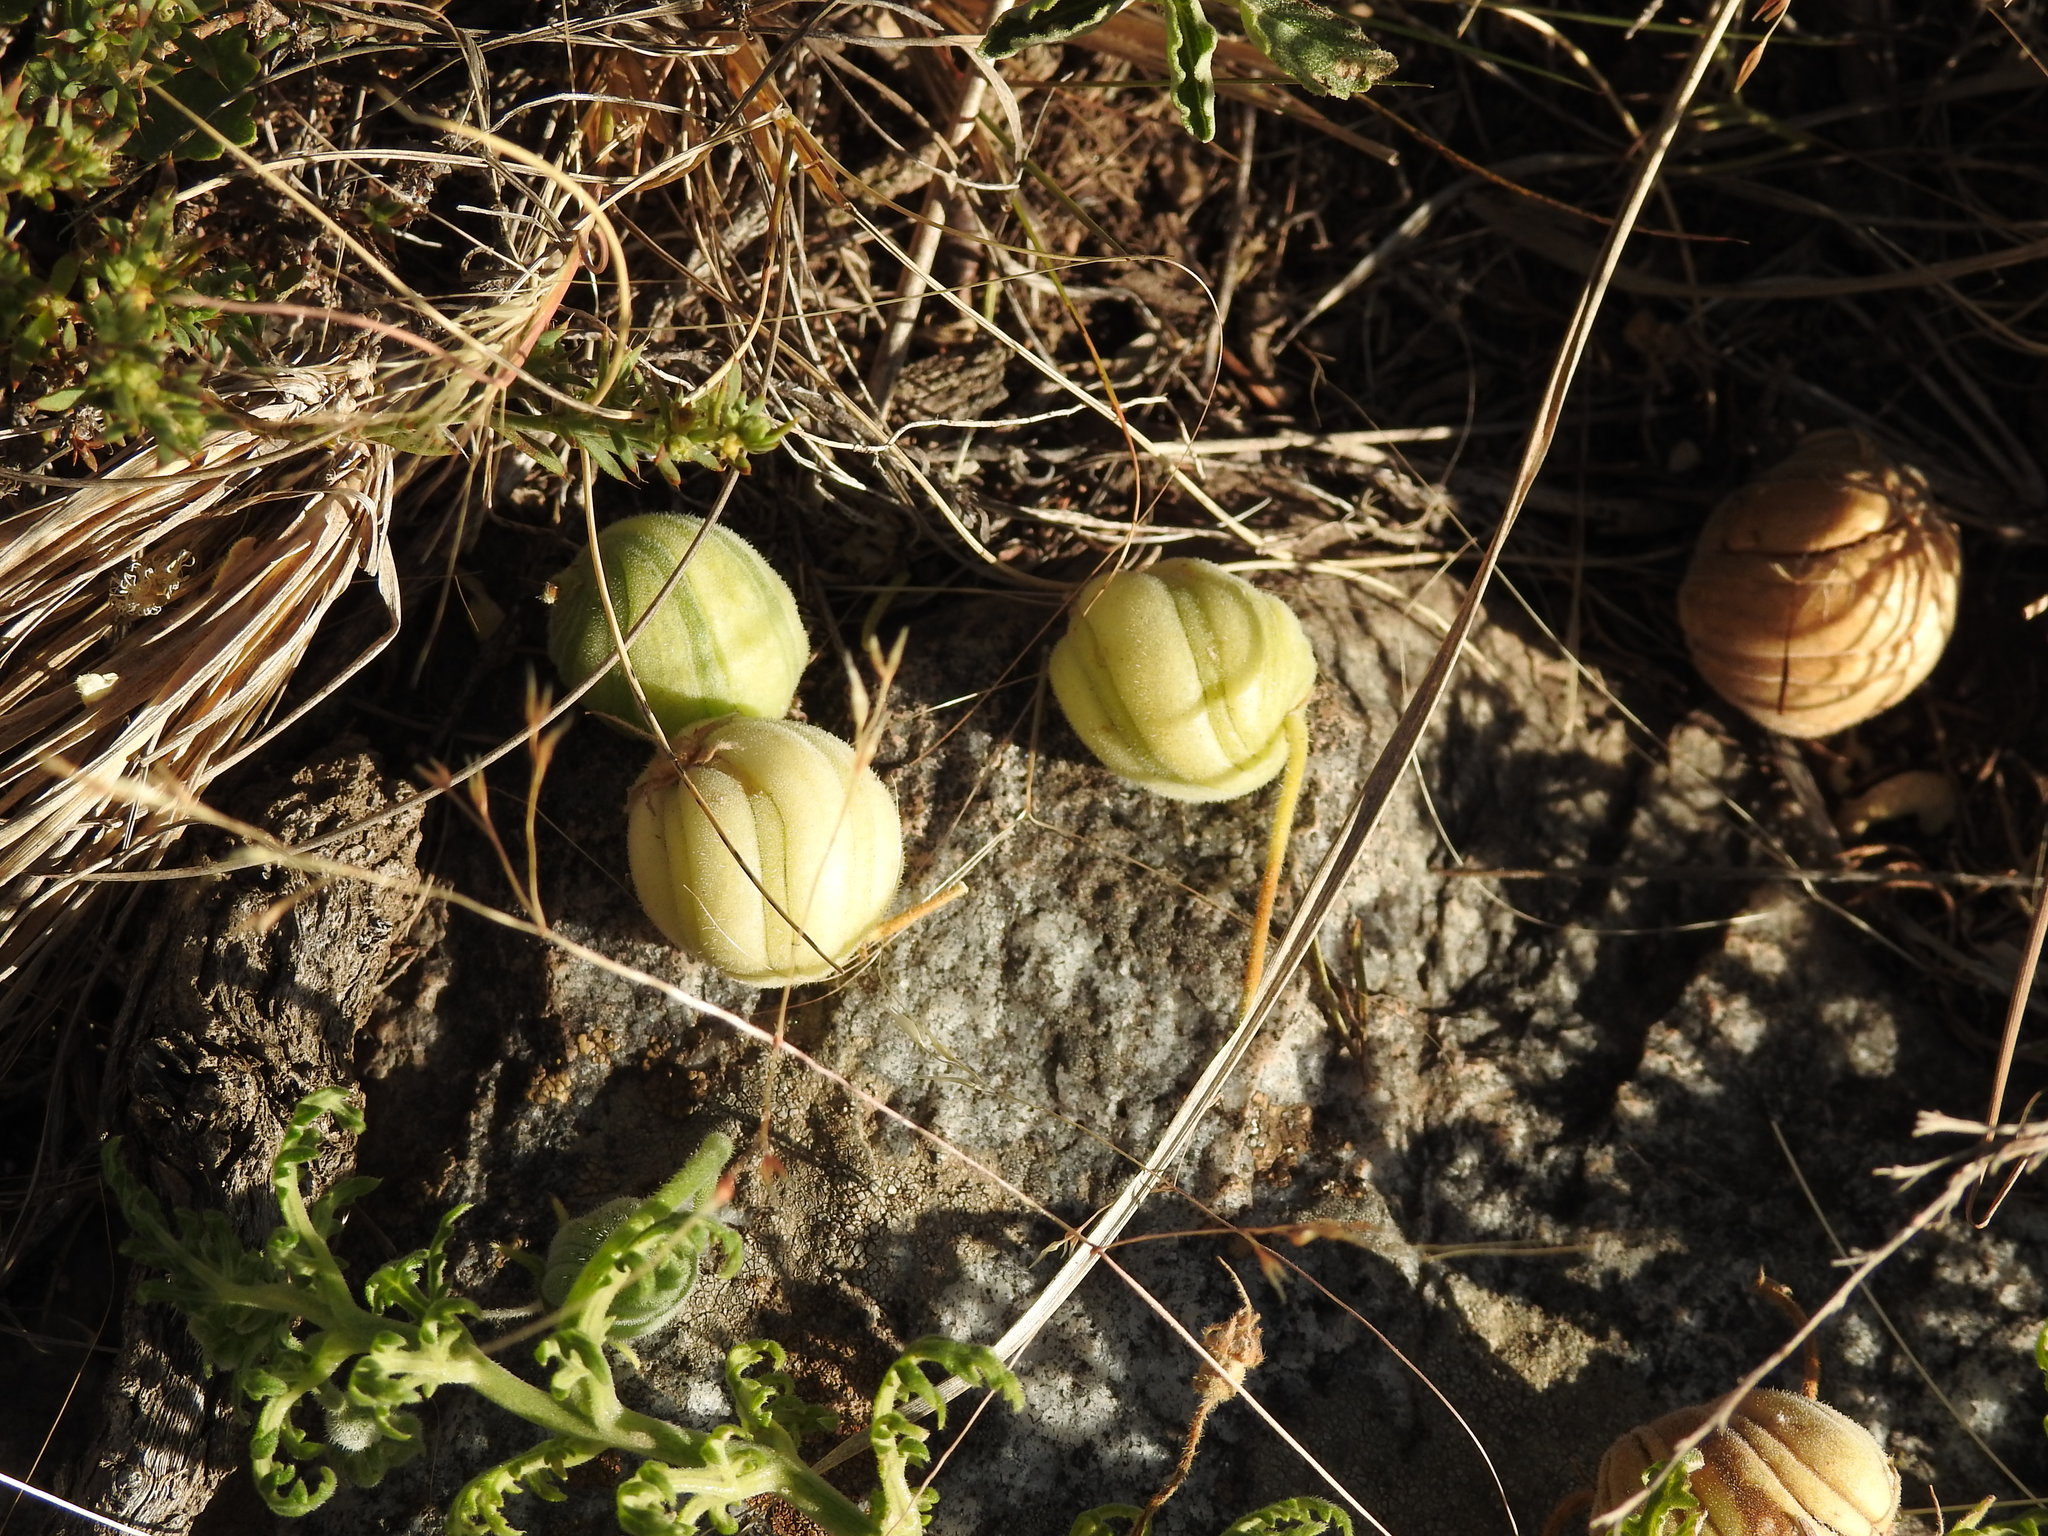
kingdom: Plantae
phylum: Tracheophyta
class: Magnoliopsida
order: Cornales
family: Loasaceae
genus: Blumenbachia
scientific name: Blumenbachia insignis
